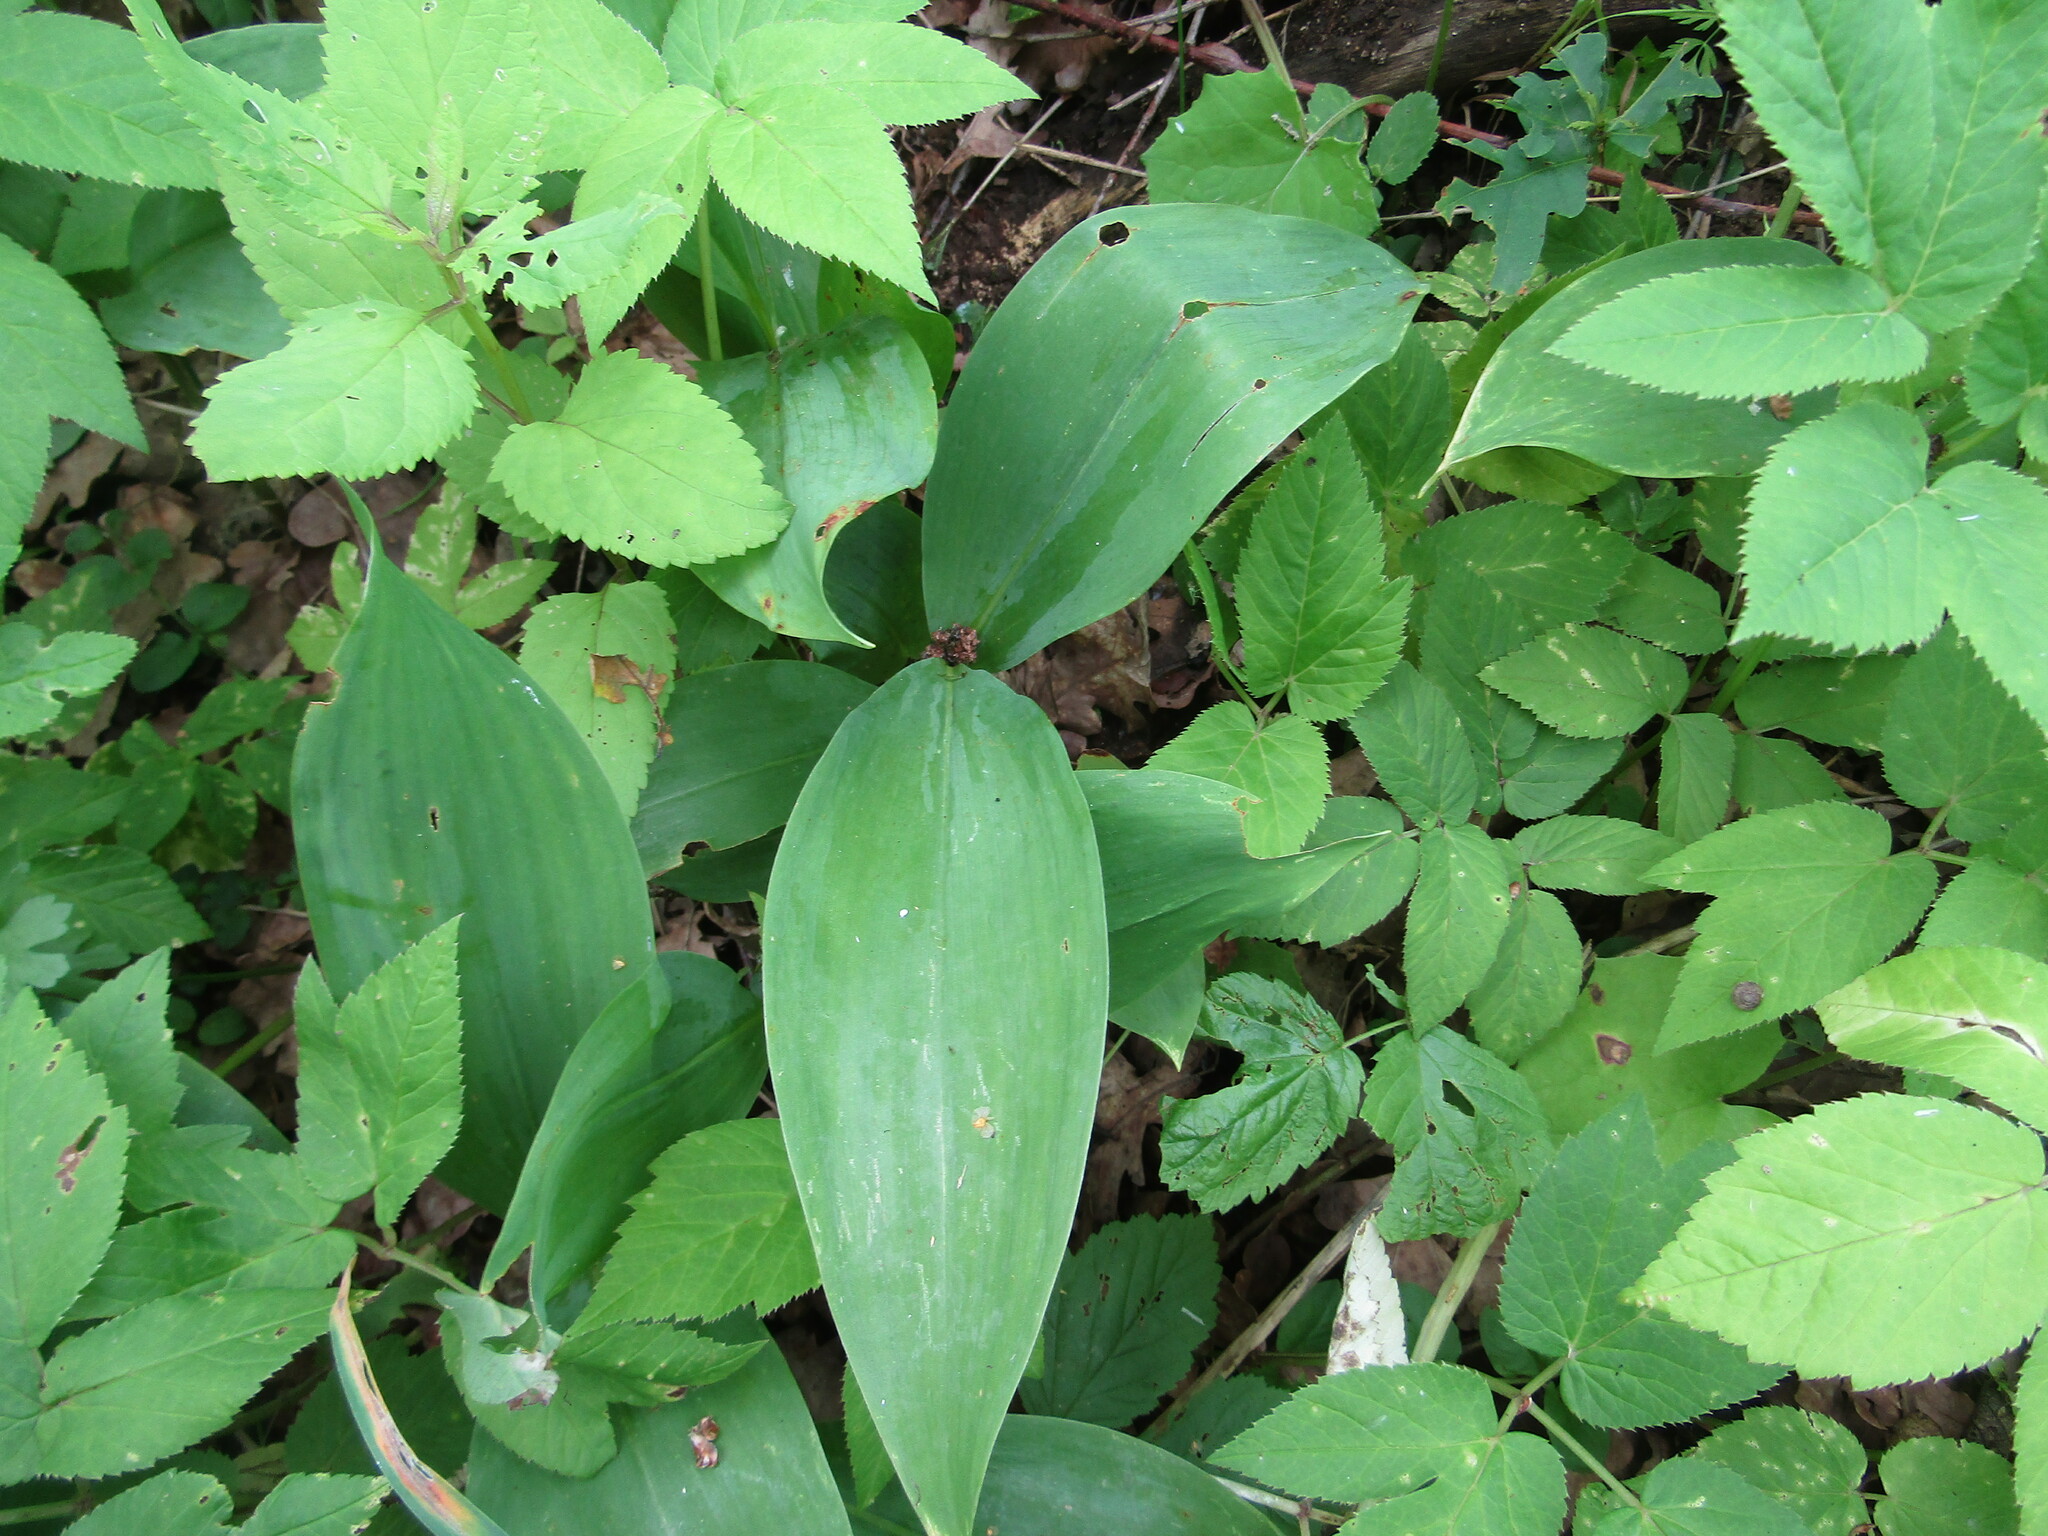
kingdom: Plantae
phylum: Tracheophyta
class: Liliopsida
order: Asparagales
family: Asparagaceae
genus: Convallaria
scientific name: Convallaria majalis
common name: Lily-of-the-valley
